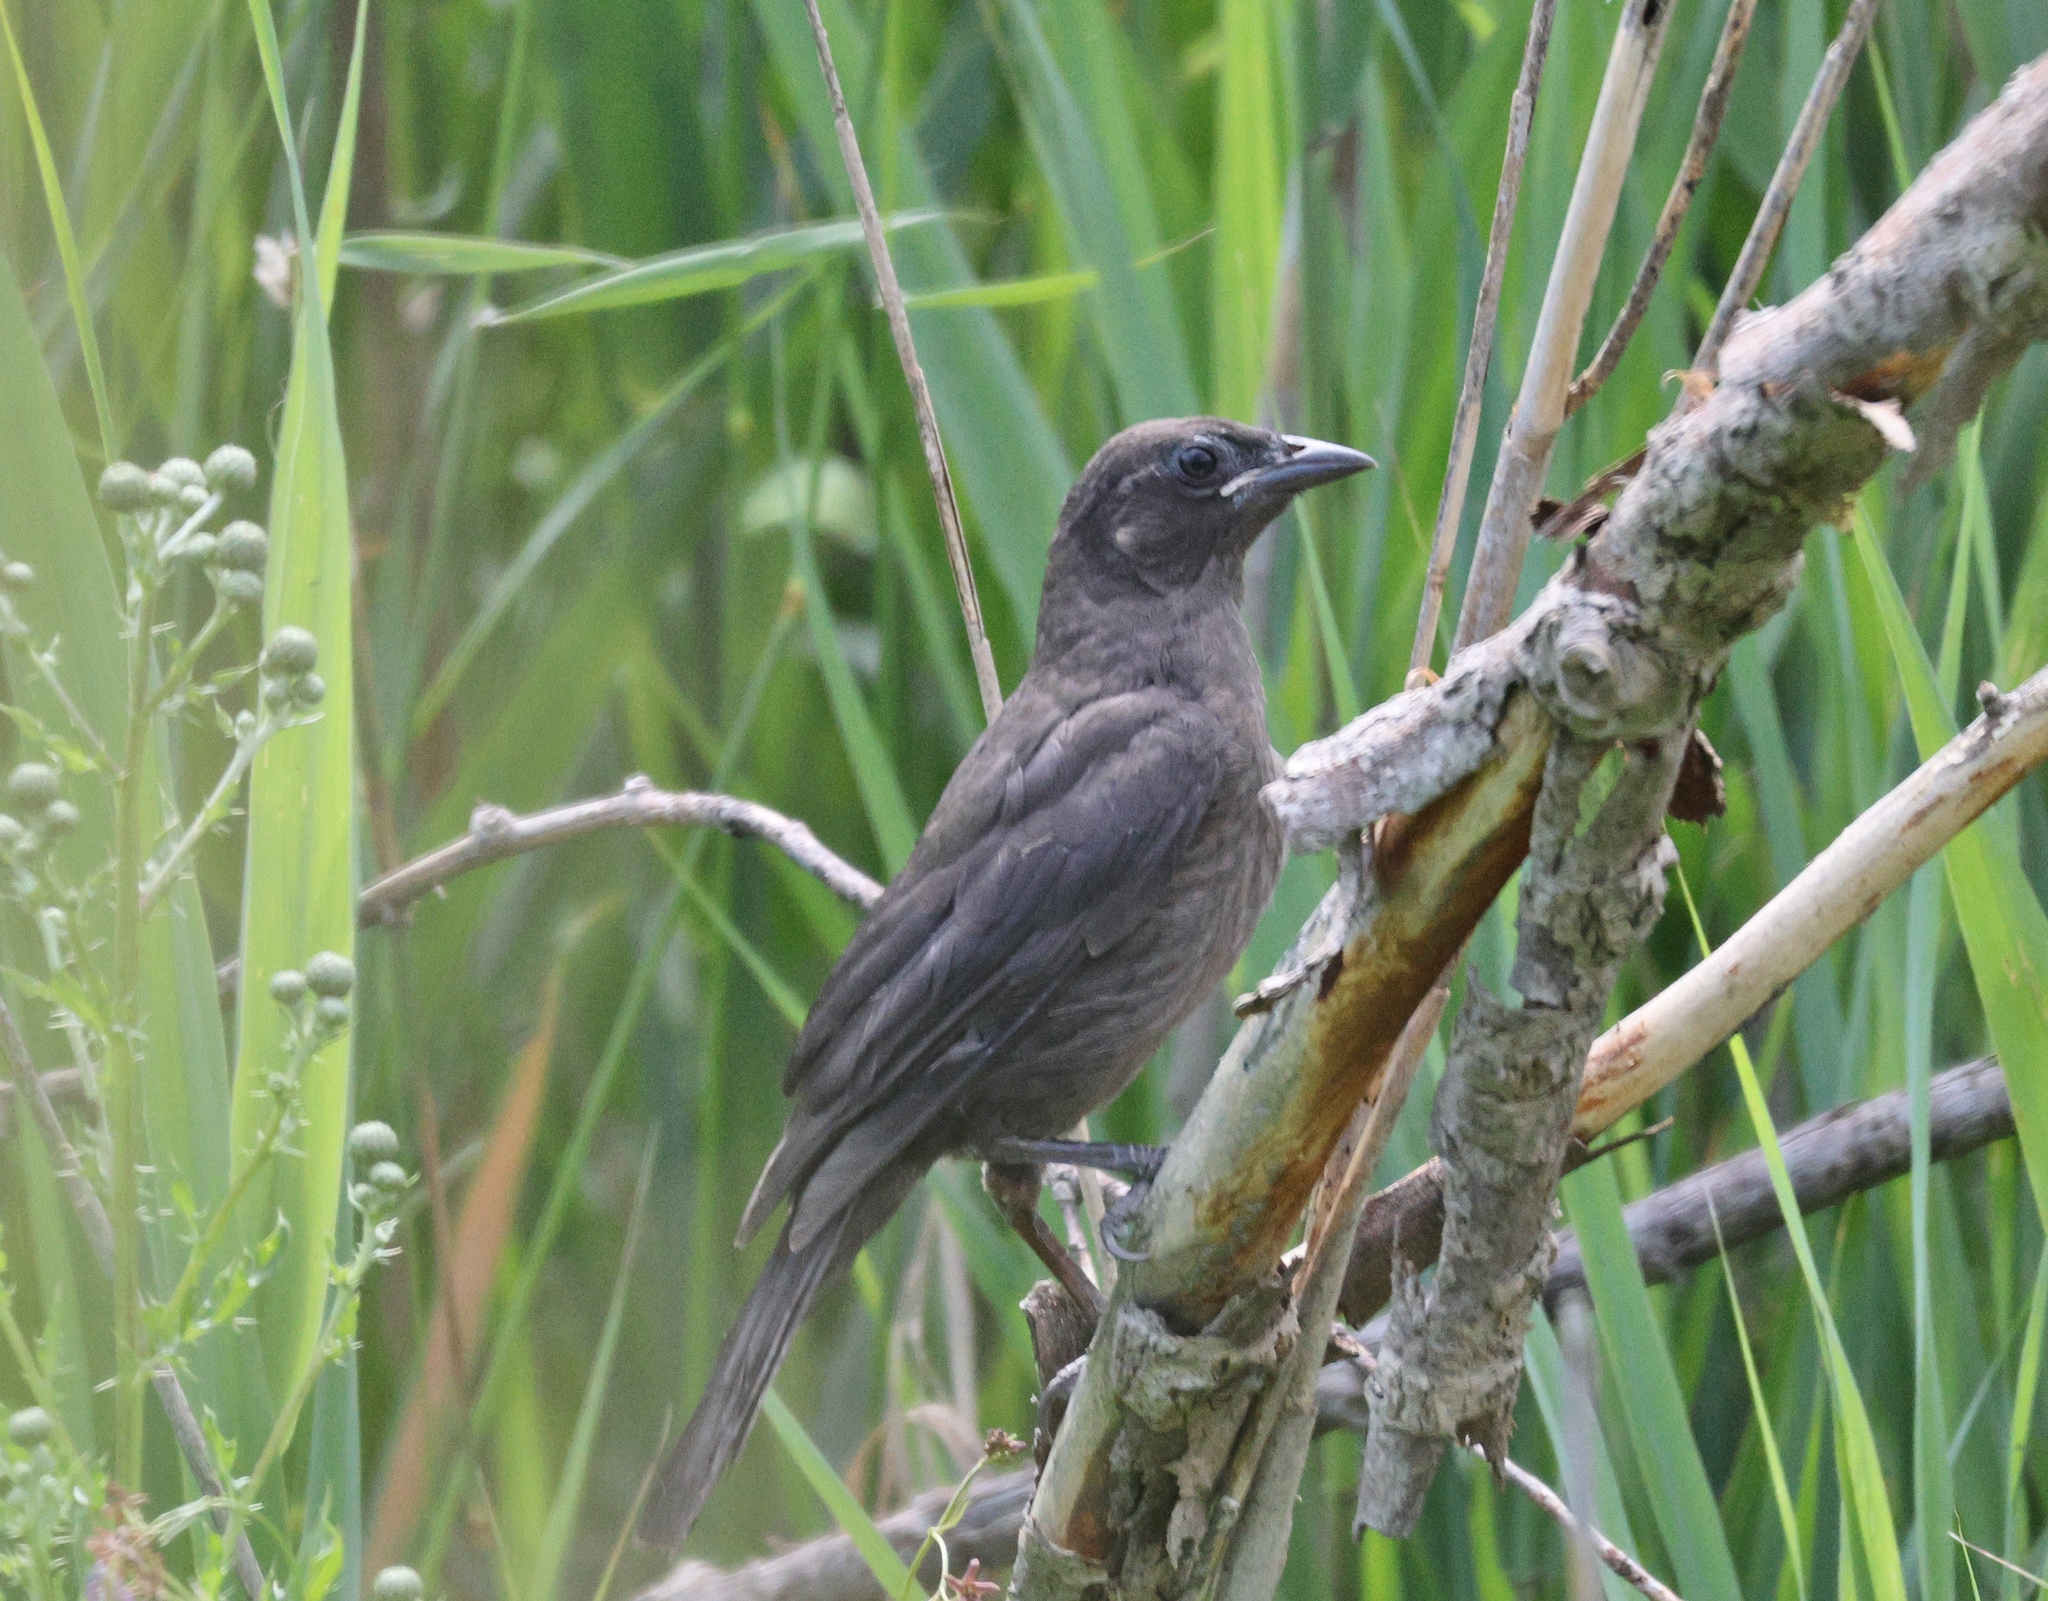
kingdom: Animalia
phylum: Chordata
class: Aves
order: Passeriformes
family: Icteridae
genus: Quiscalus
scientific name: Quiscalus quiscula
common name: Common grackle
